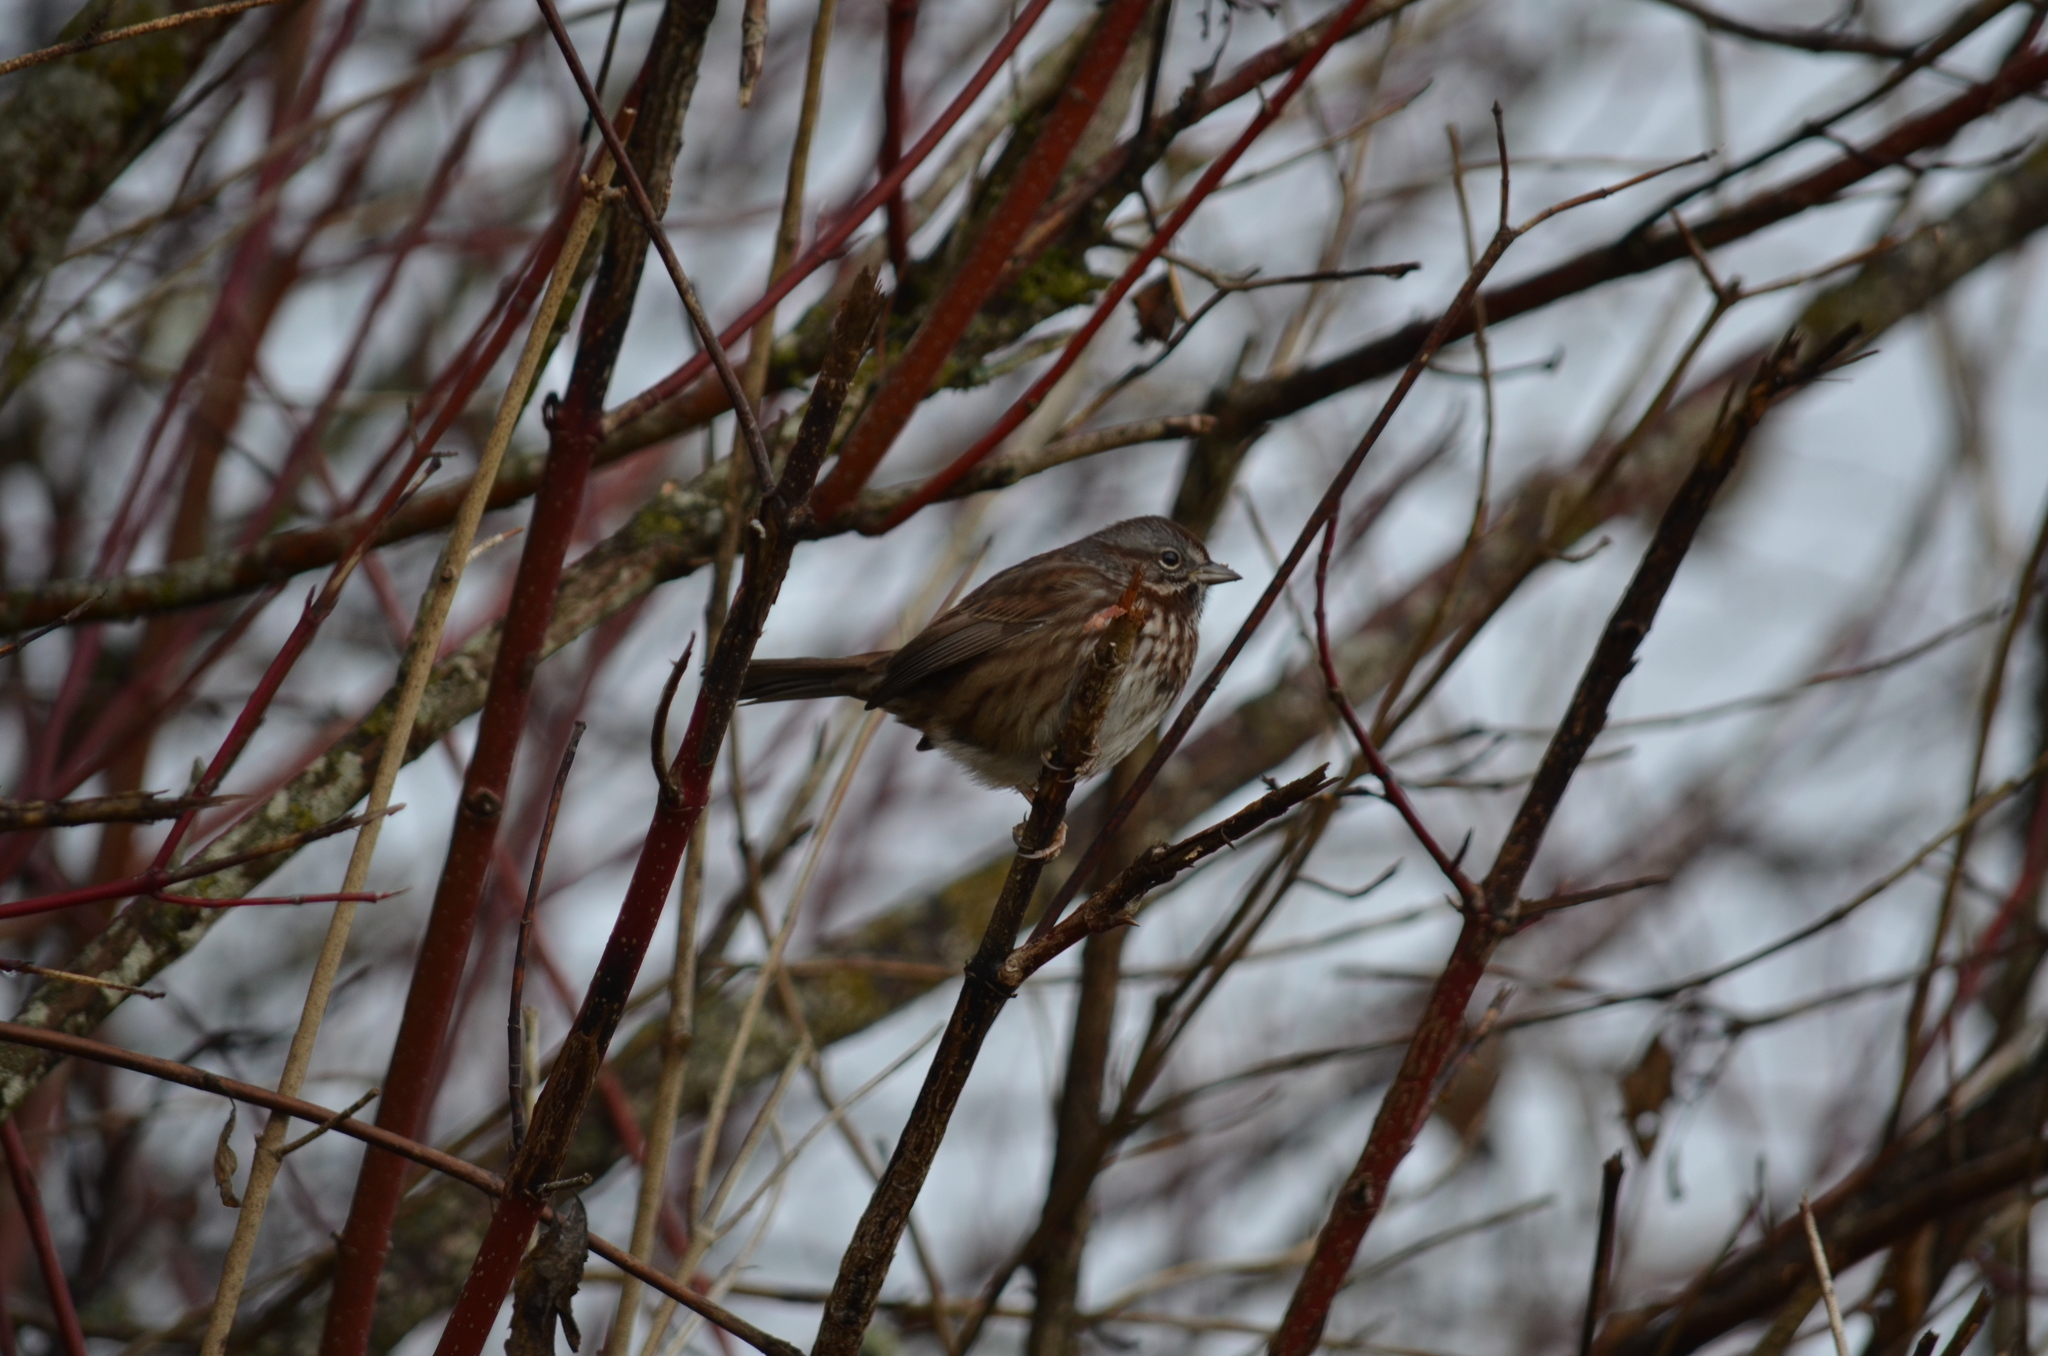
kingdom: Animalia
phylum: Chordata
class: Aves
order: Passeriformes
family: Passerellidae
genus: Melospiza
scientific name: Melospiza melodia
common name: Song sparrow
